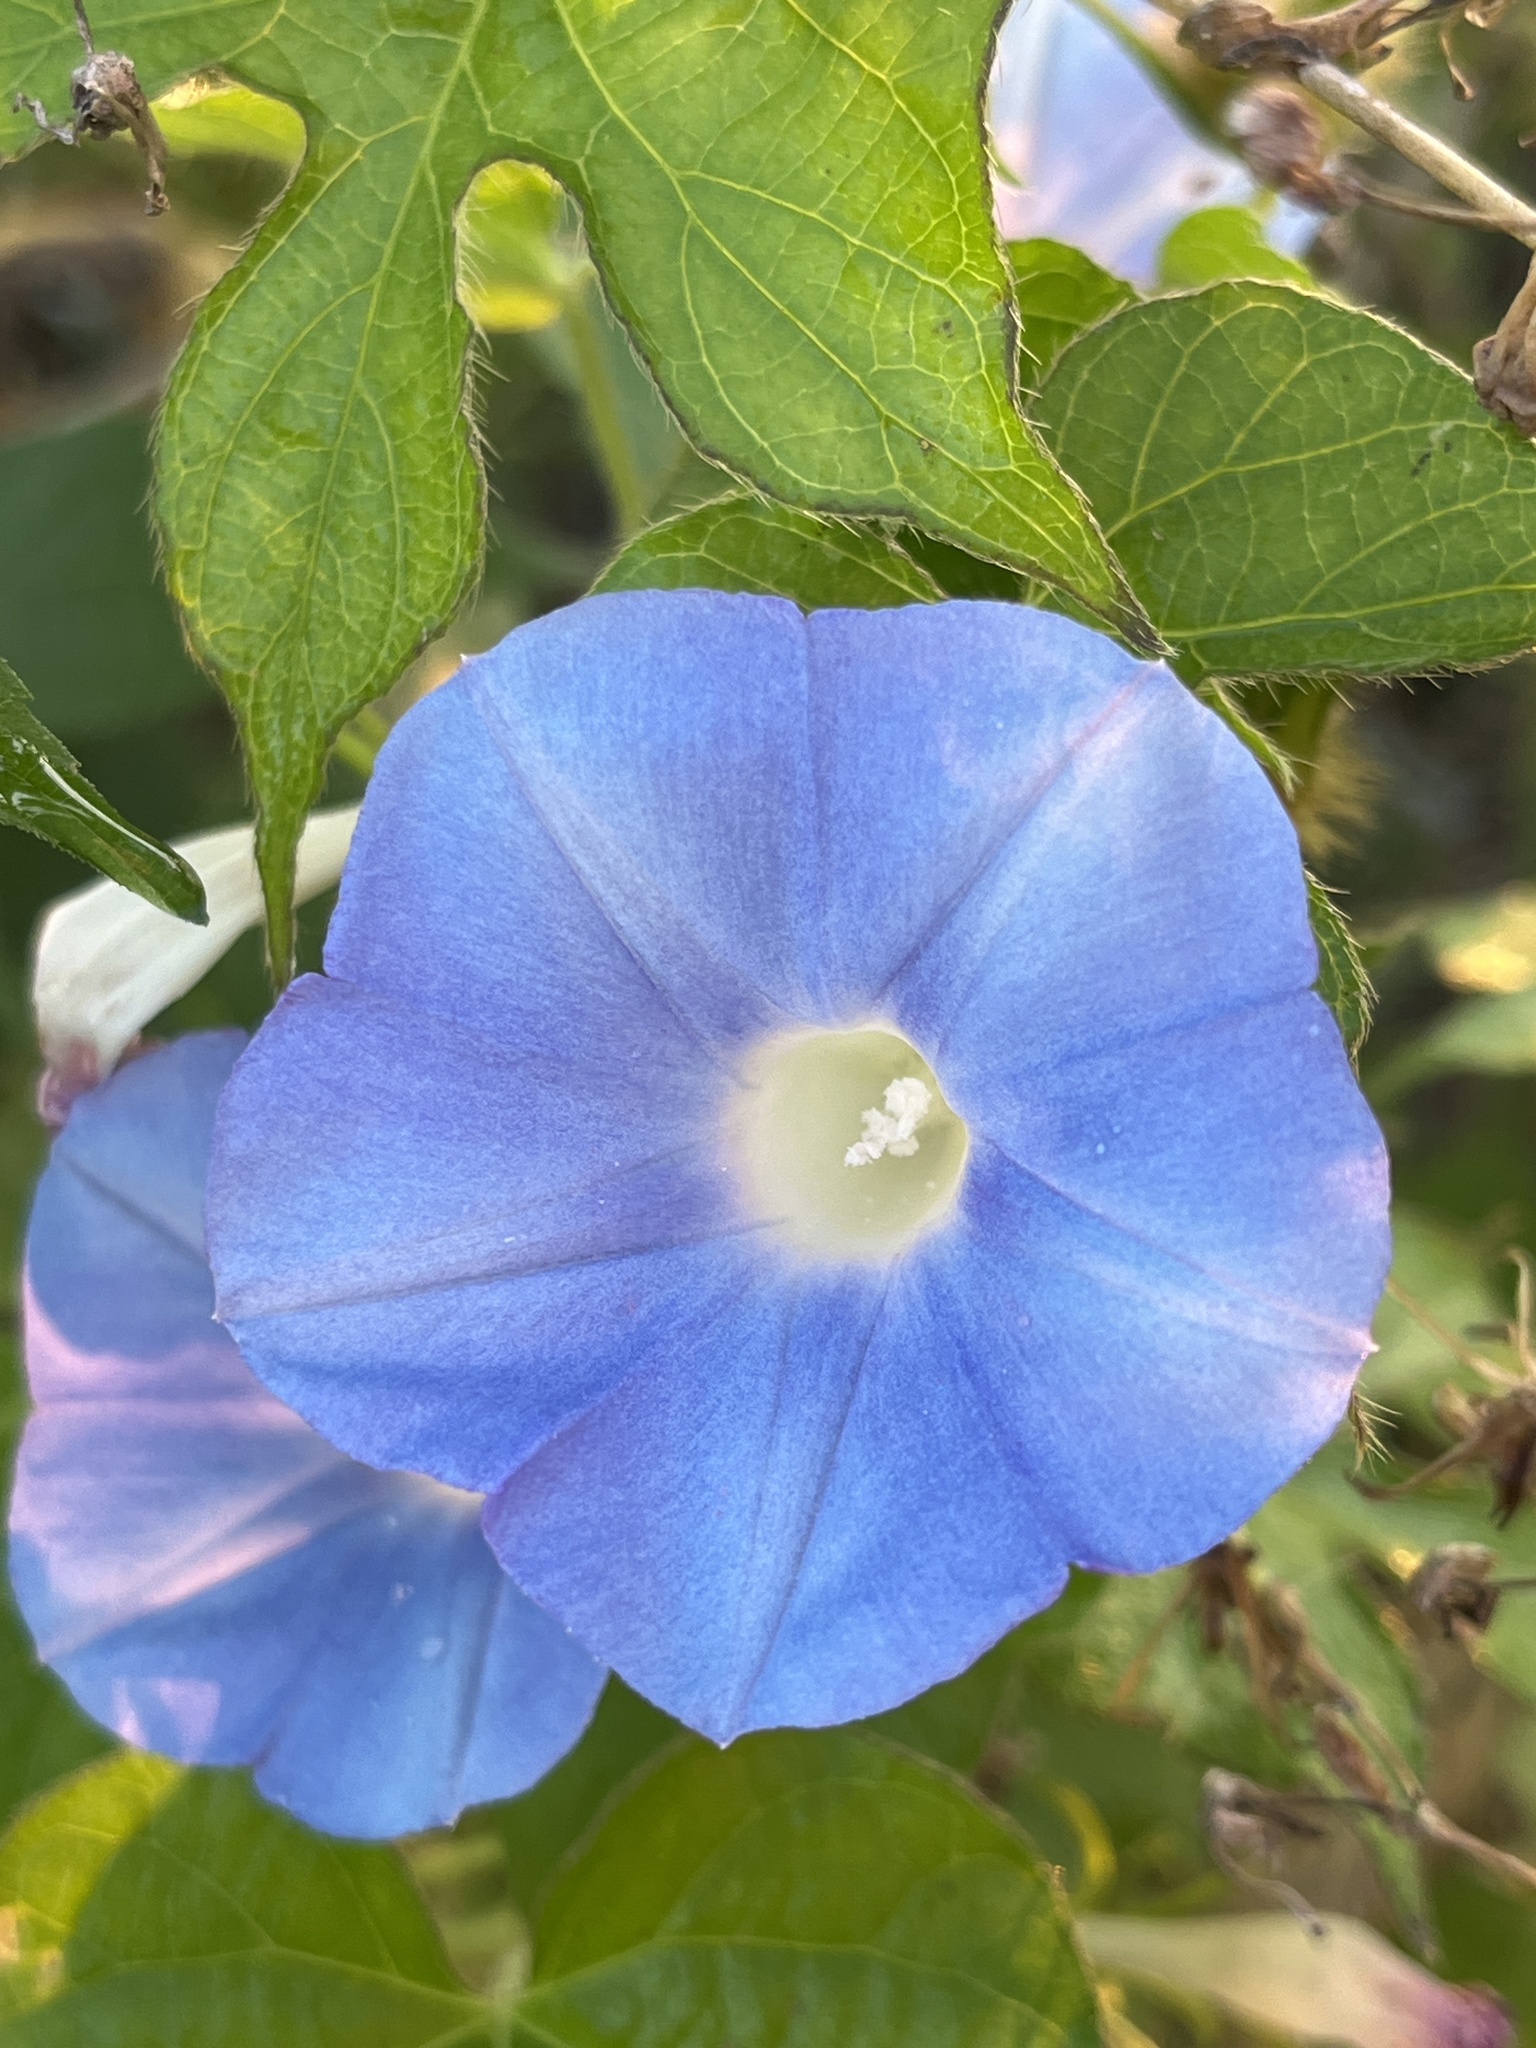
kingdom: Plantae
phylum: Tracheophyta
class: Magnoliopsida
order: Solanales
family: Convolvulaceae
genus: Ipomoea
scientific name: Ipomoea hederacea
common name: Ivy-leaved morning-glory
